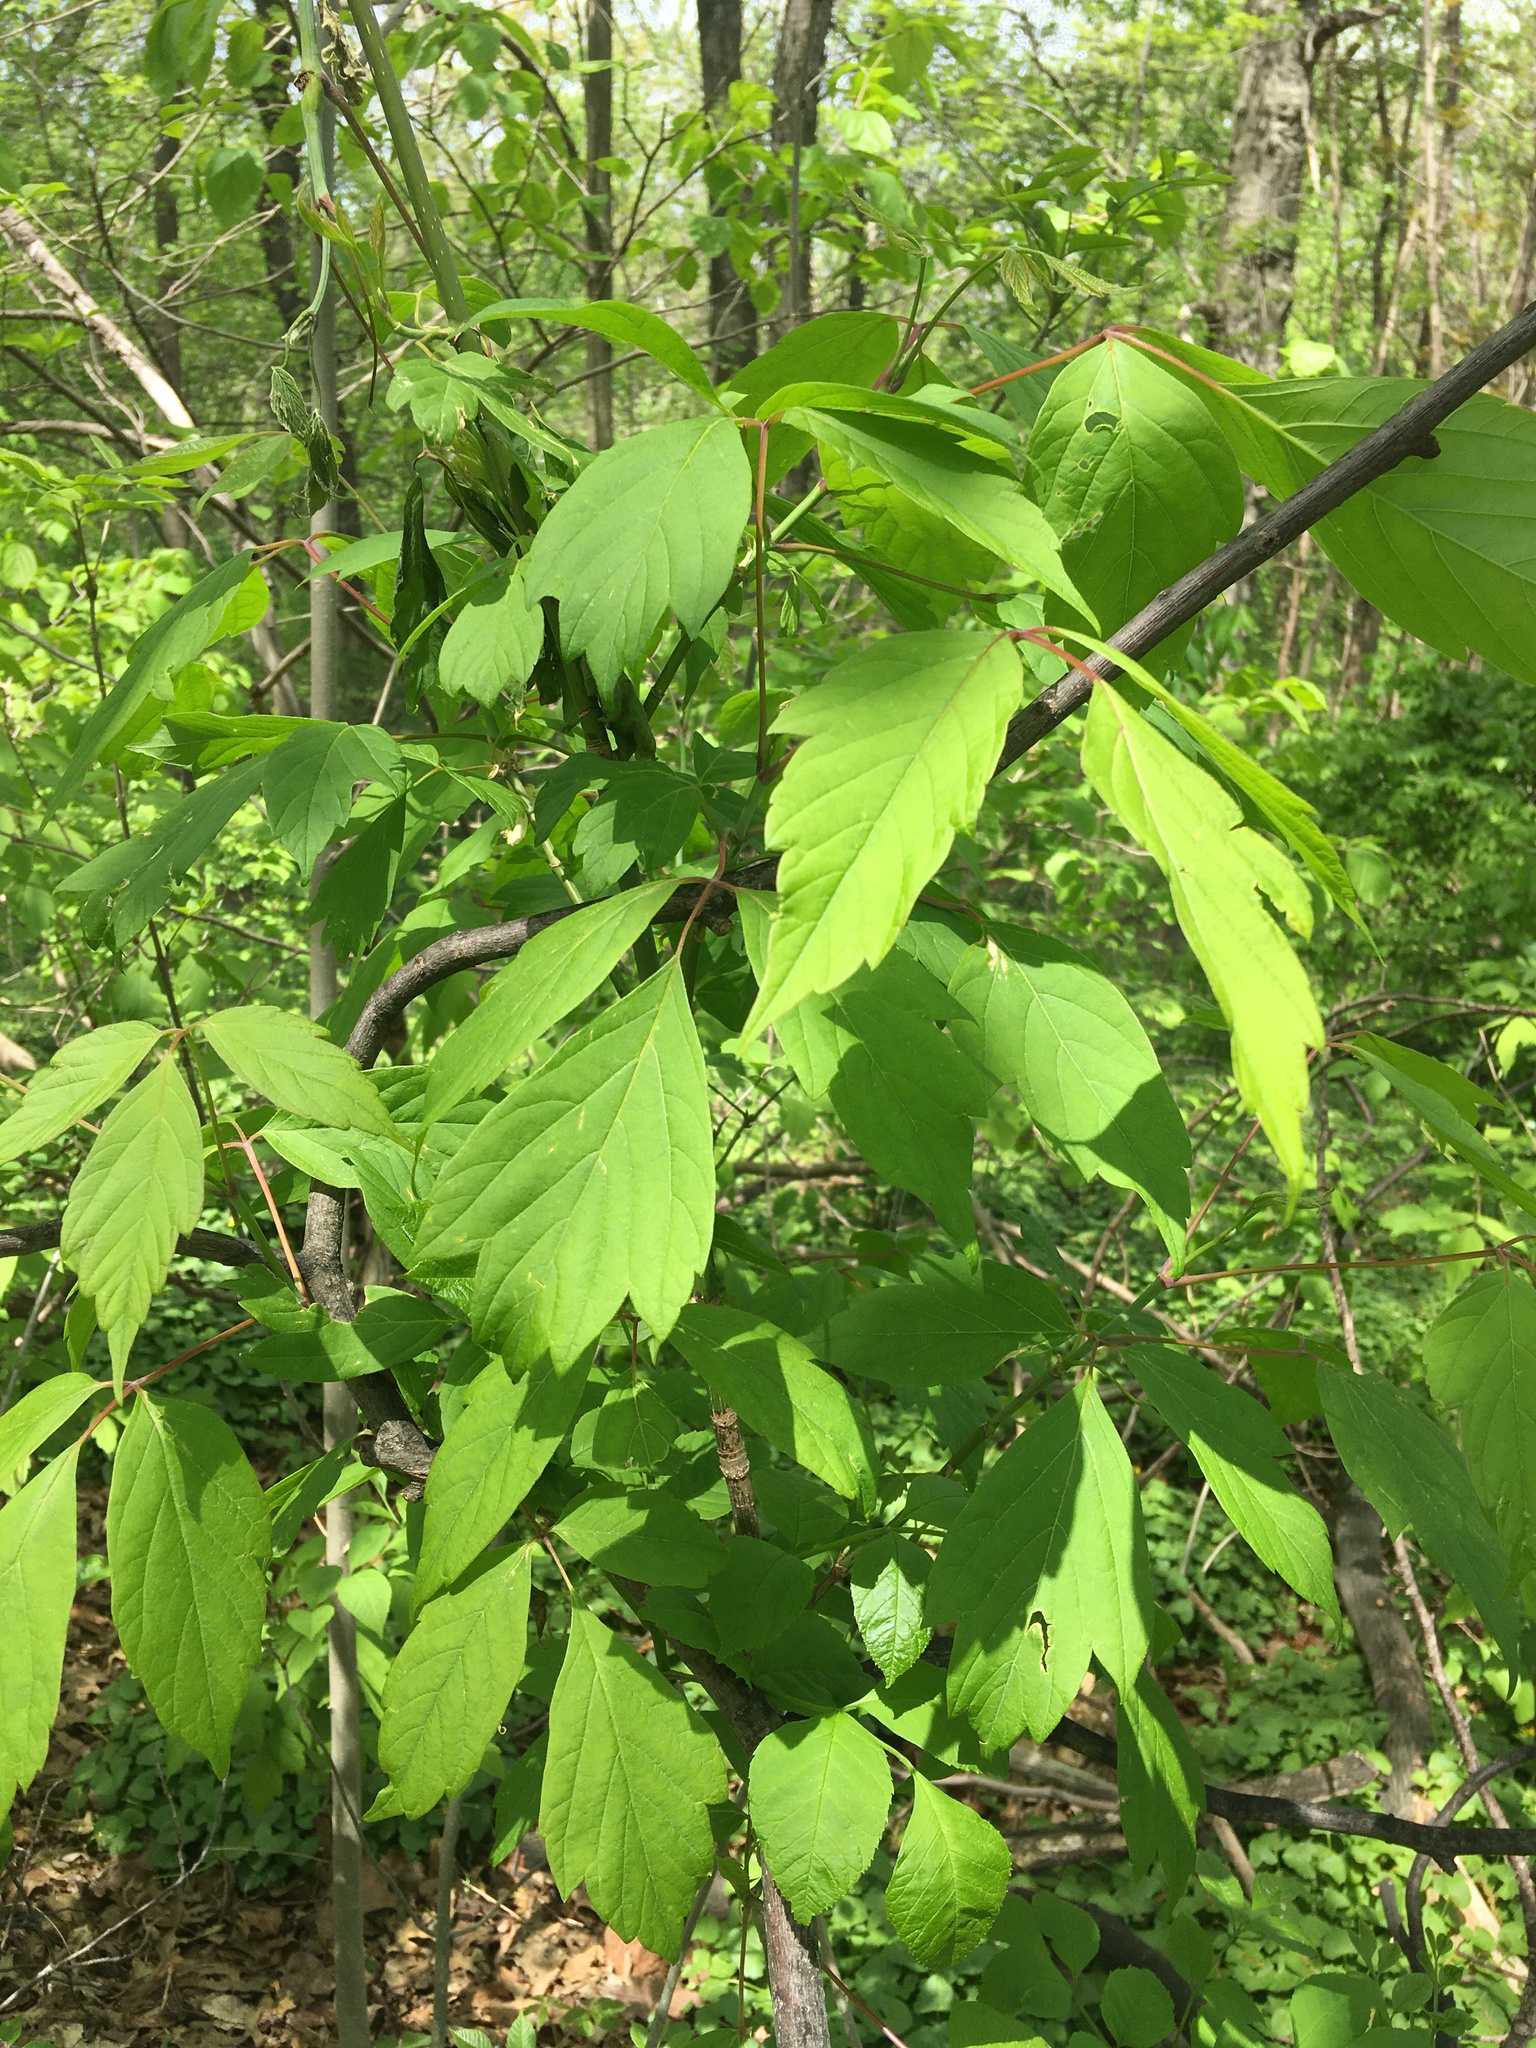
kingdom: Plantae
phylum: Tracheophyta
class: Magnoliopsida
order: Sapindales
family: Sapindaceae
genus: Acer
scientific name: Acer negundo
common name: Ashleaf maple
